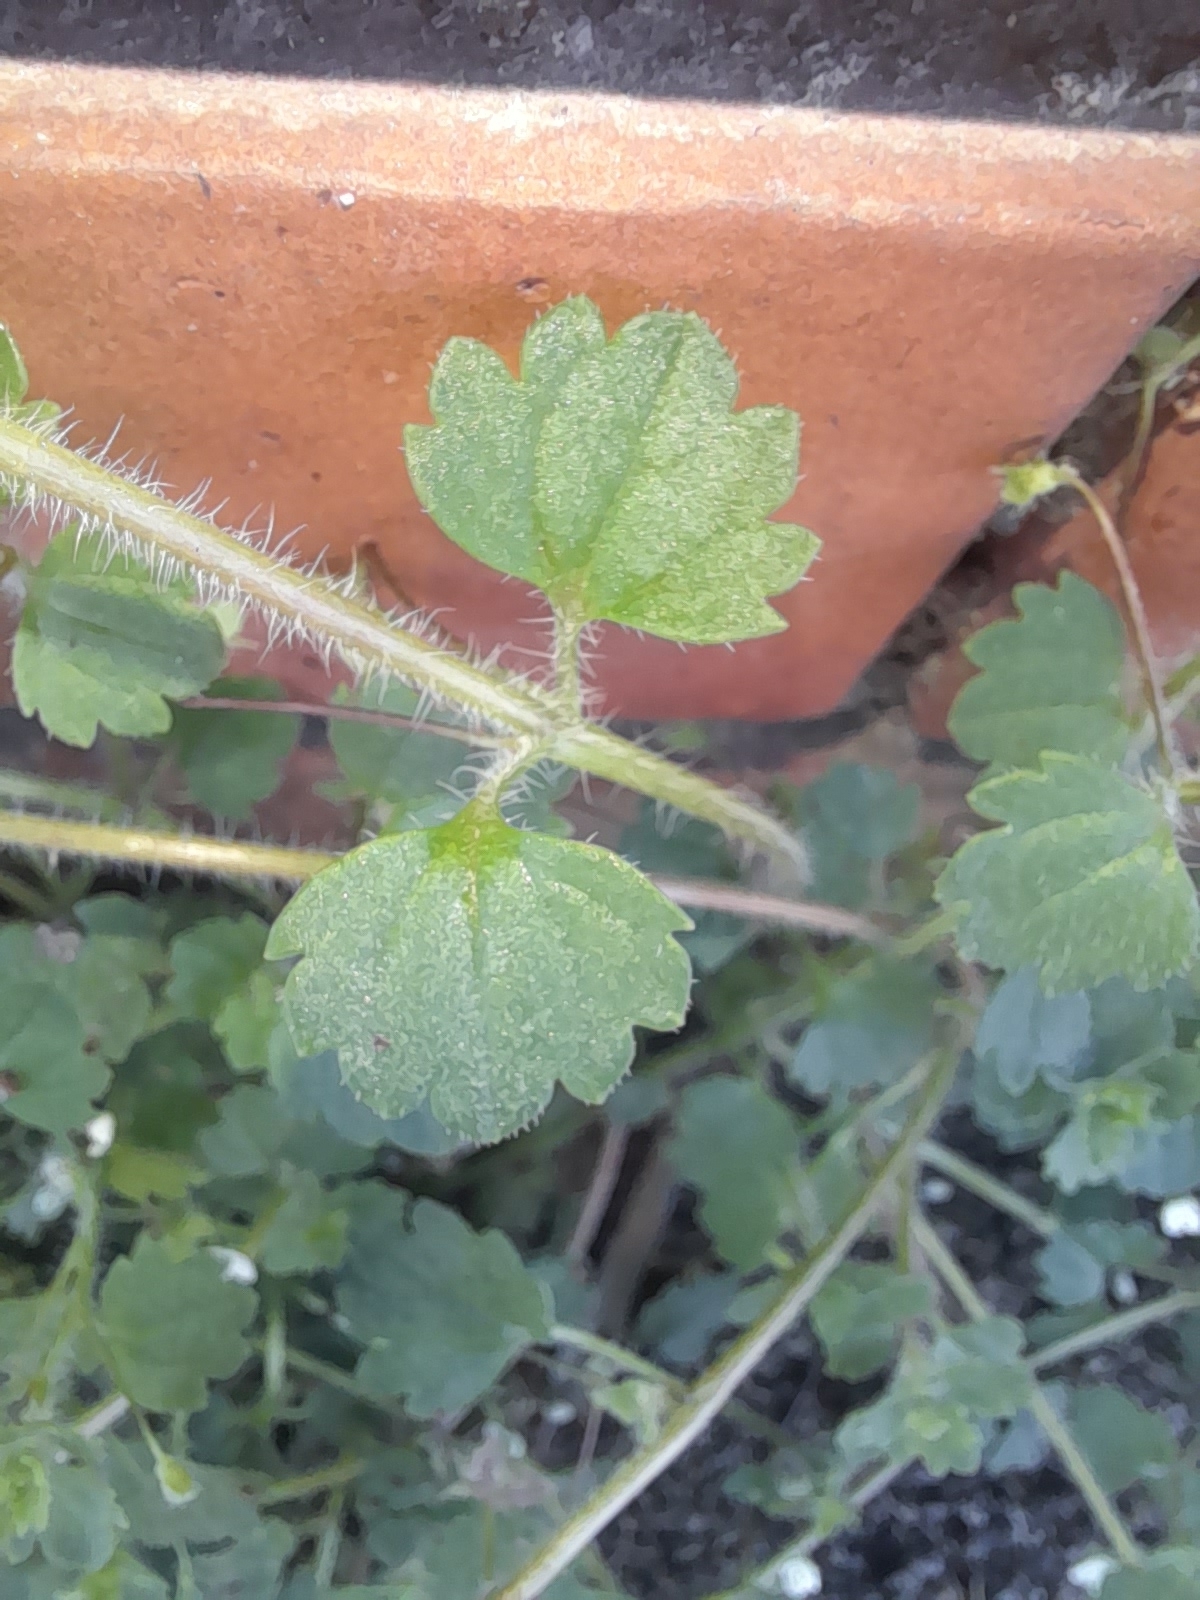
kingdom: Plantae
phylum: Tracheophyta
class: Magnoliopsida
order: Lamiales
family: Plantaginaceae
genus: Veronica
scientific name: Veronica cymbalaria
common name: Pale speedwell
